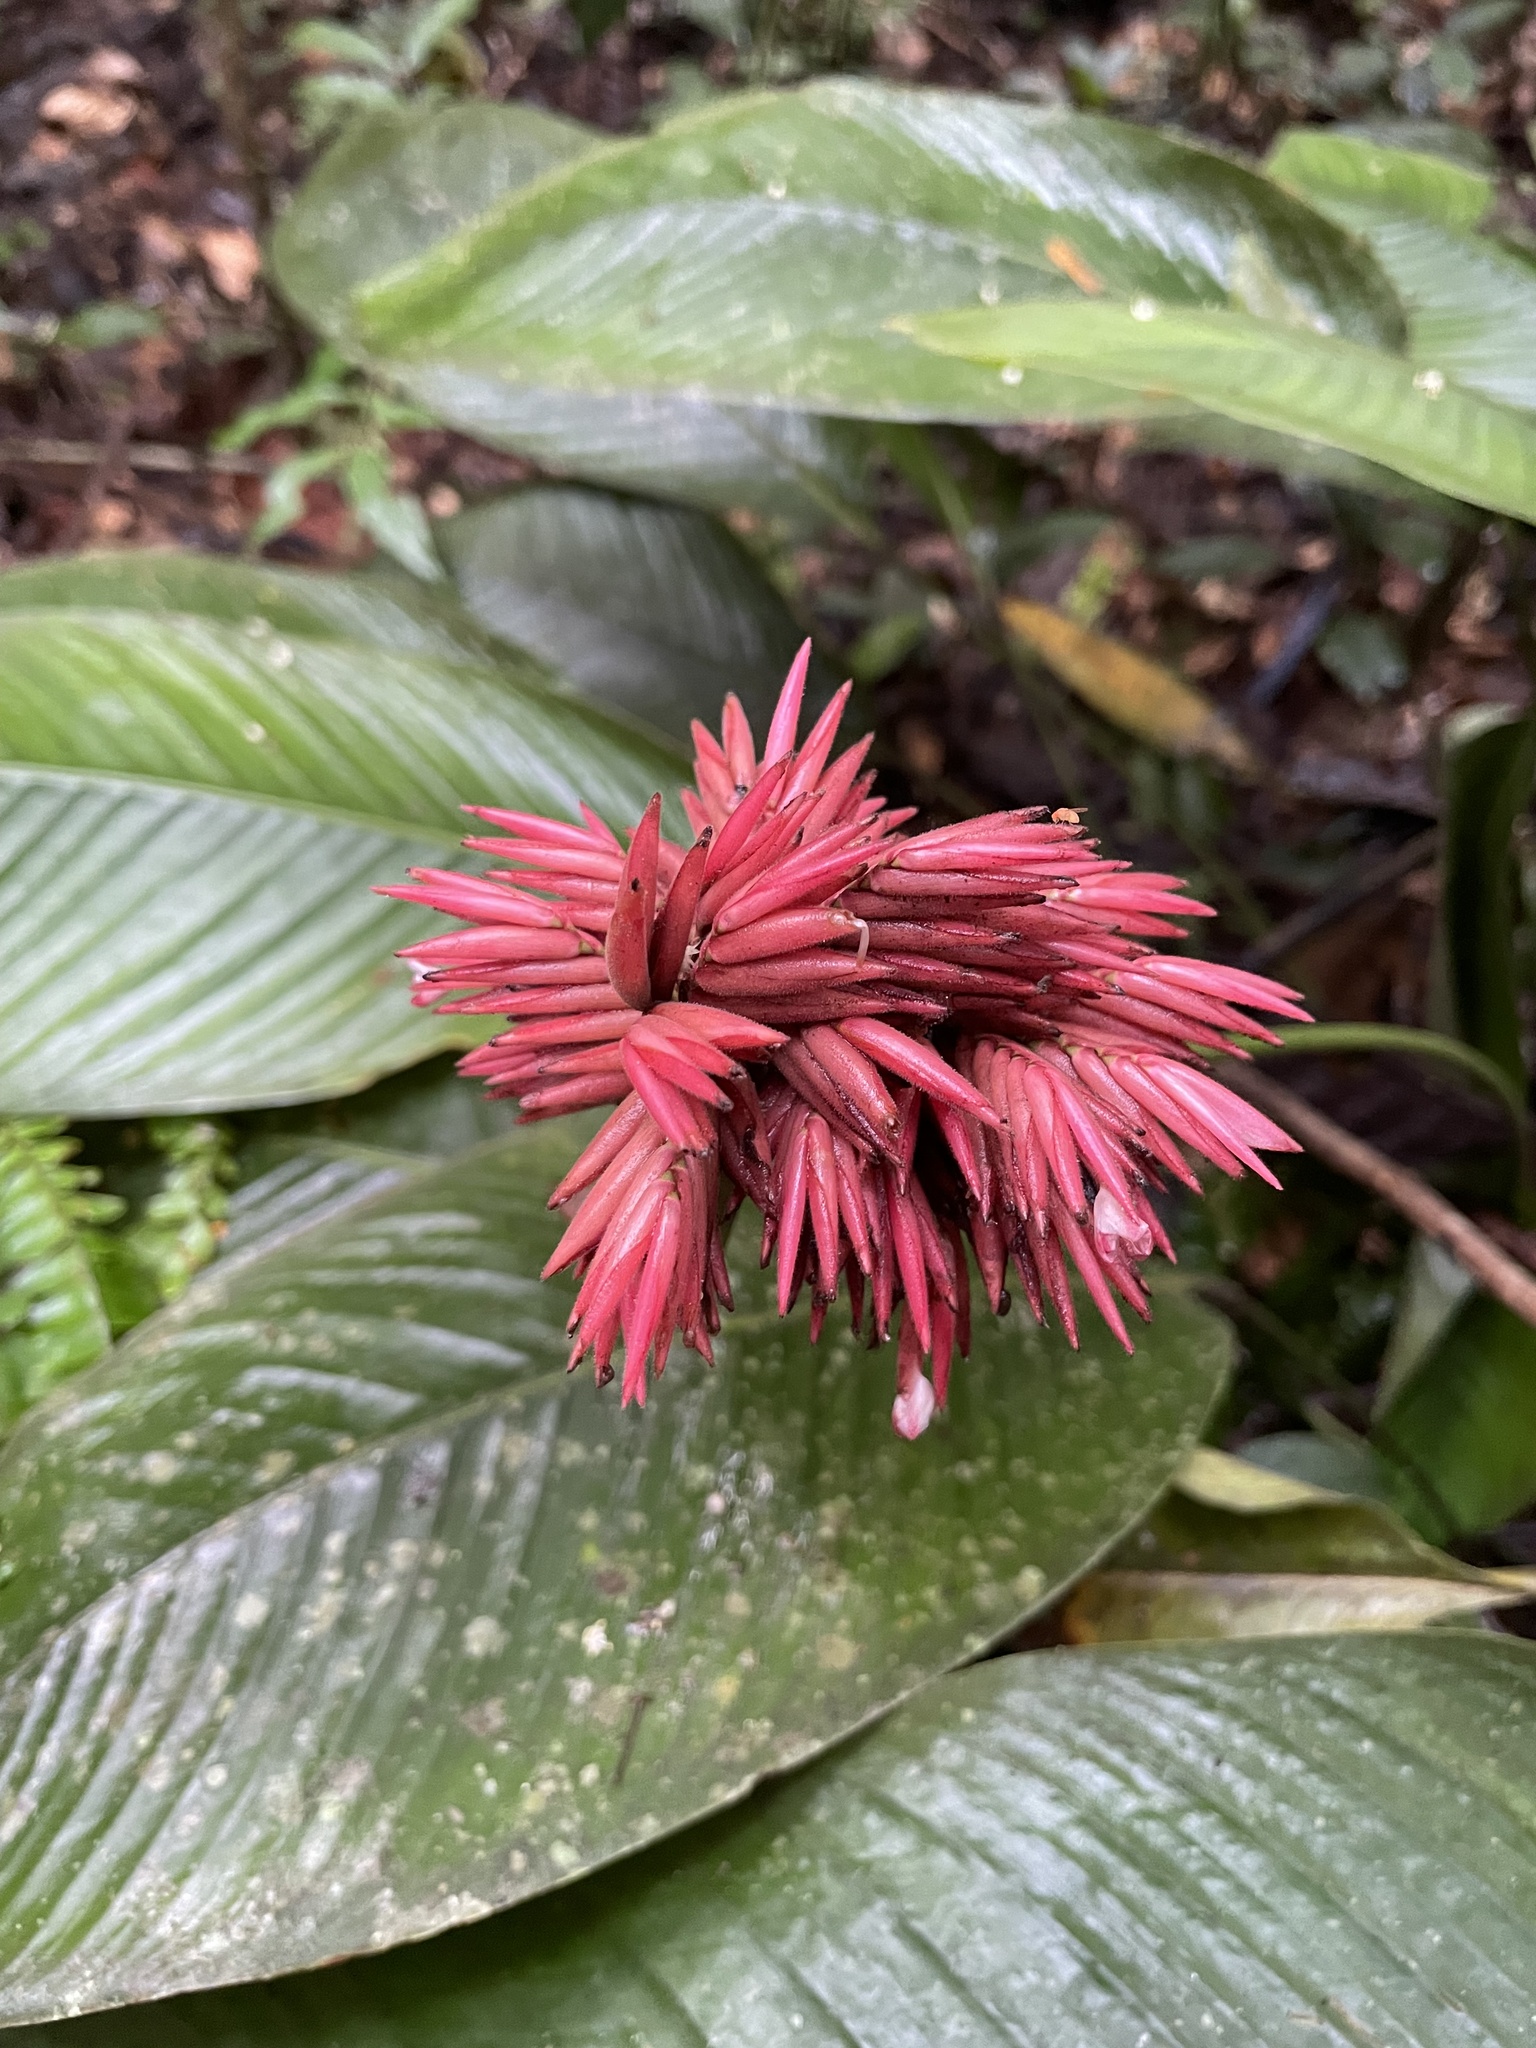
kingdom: Plantae
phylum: Tracheophyta
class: Liliopsida
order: Zingiberales
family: Marantaceae
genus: Monotagma
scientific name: Monotagma secundum
